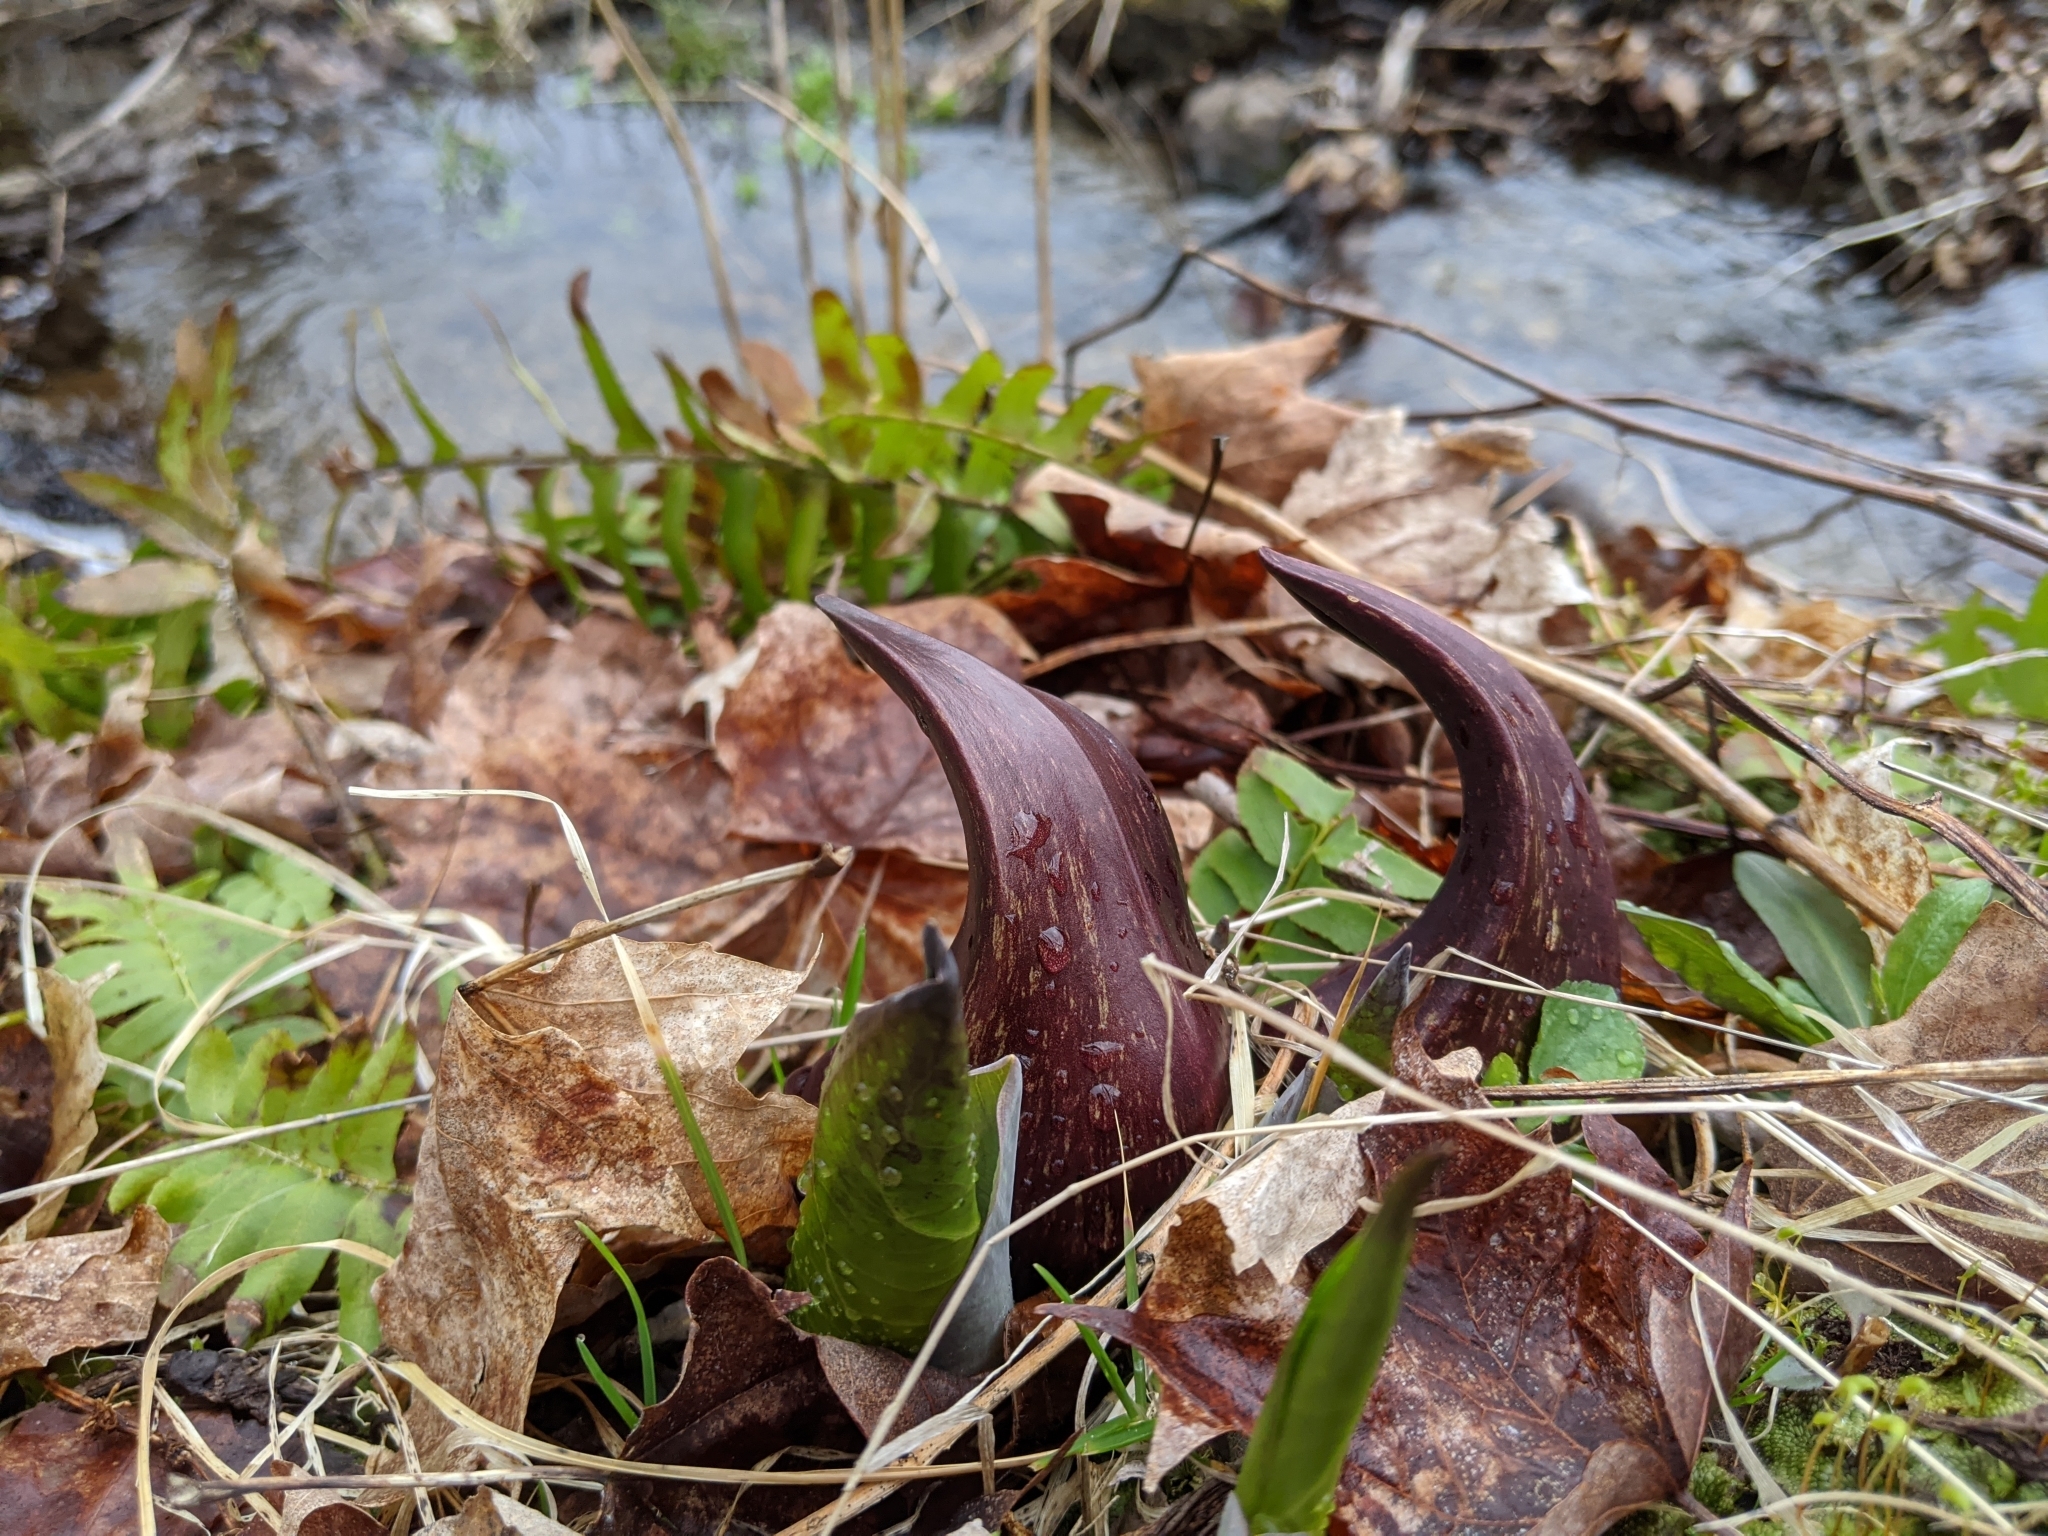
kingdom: Plantae
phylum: Tracheophyta
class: Liliopsida
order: Alismatales
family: Araceae
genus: Symplocarpus
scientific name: Symplocarpus foetidus
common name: Eastern skunk cabbage
